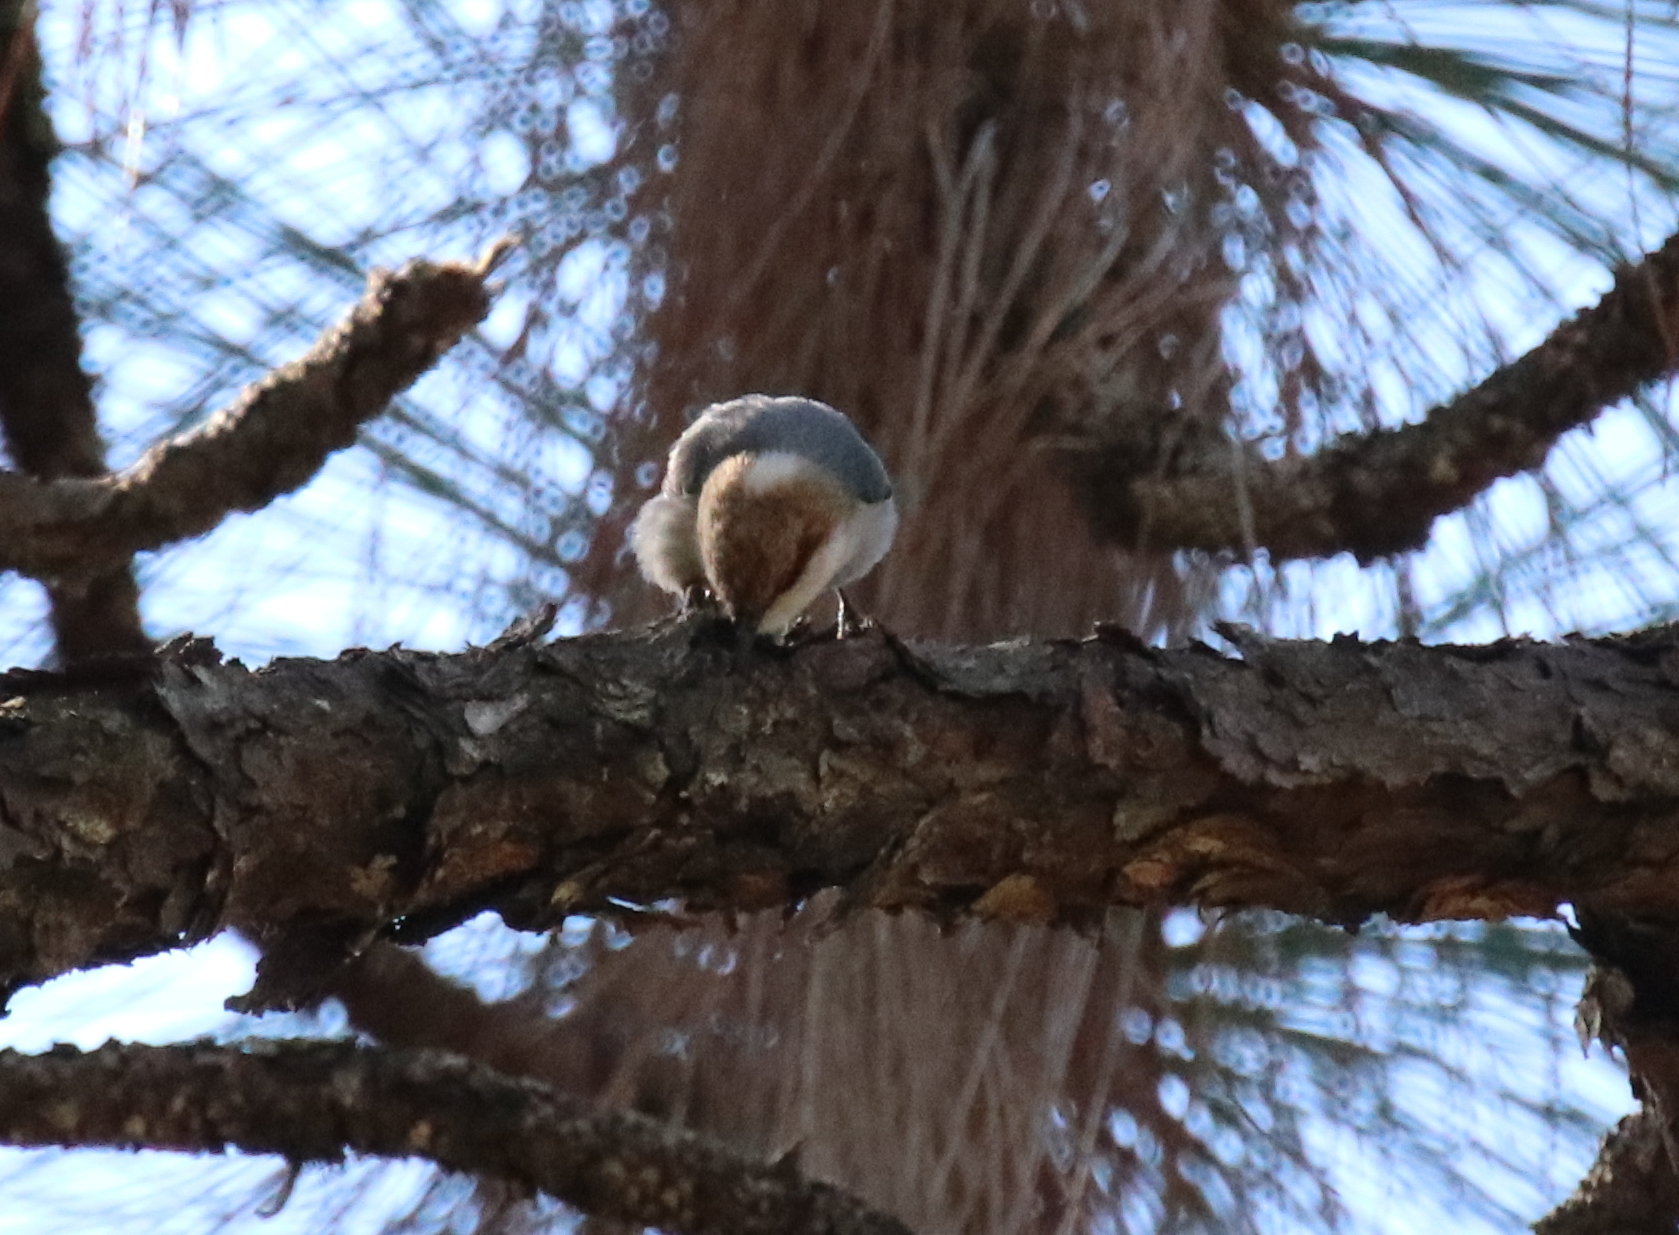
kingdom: Animalia
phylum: Chordata
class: Aves
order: Passeriformes
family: Sittidae
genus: Sitta
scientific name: Sitta pusilla
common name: Brown-headed nuthatch
